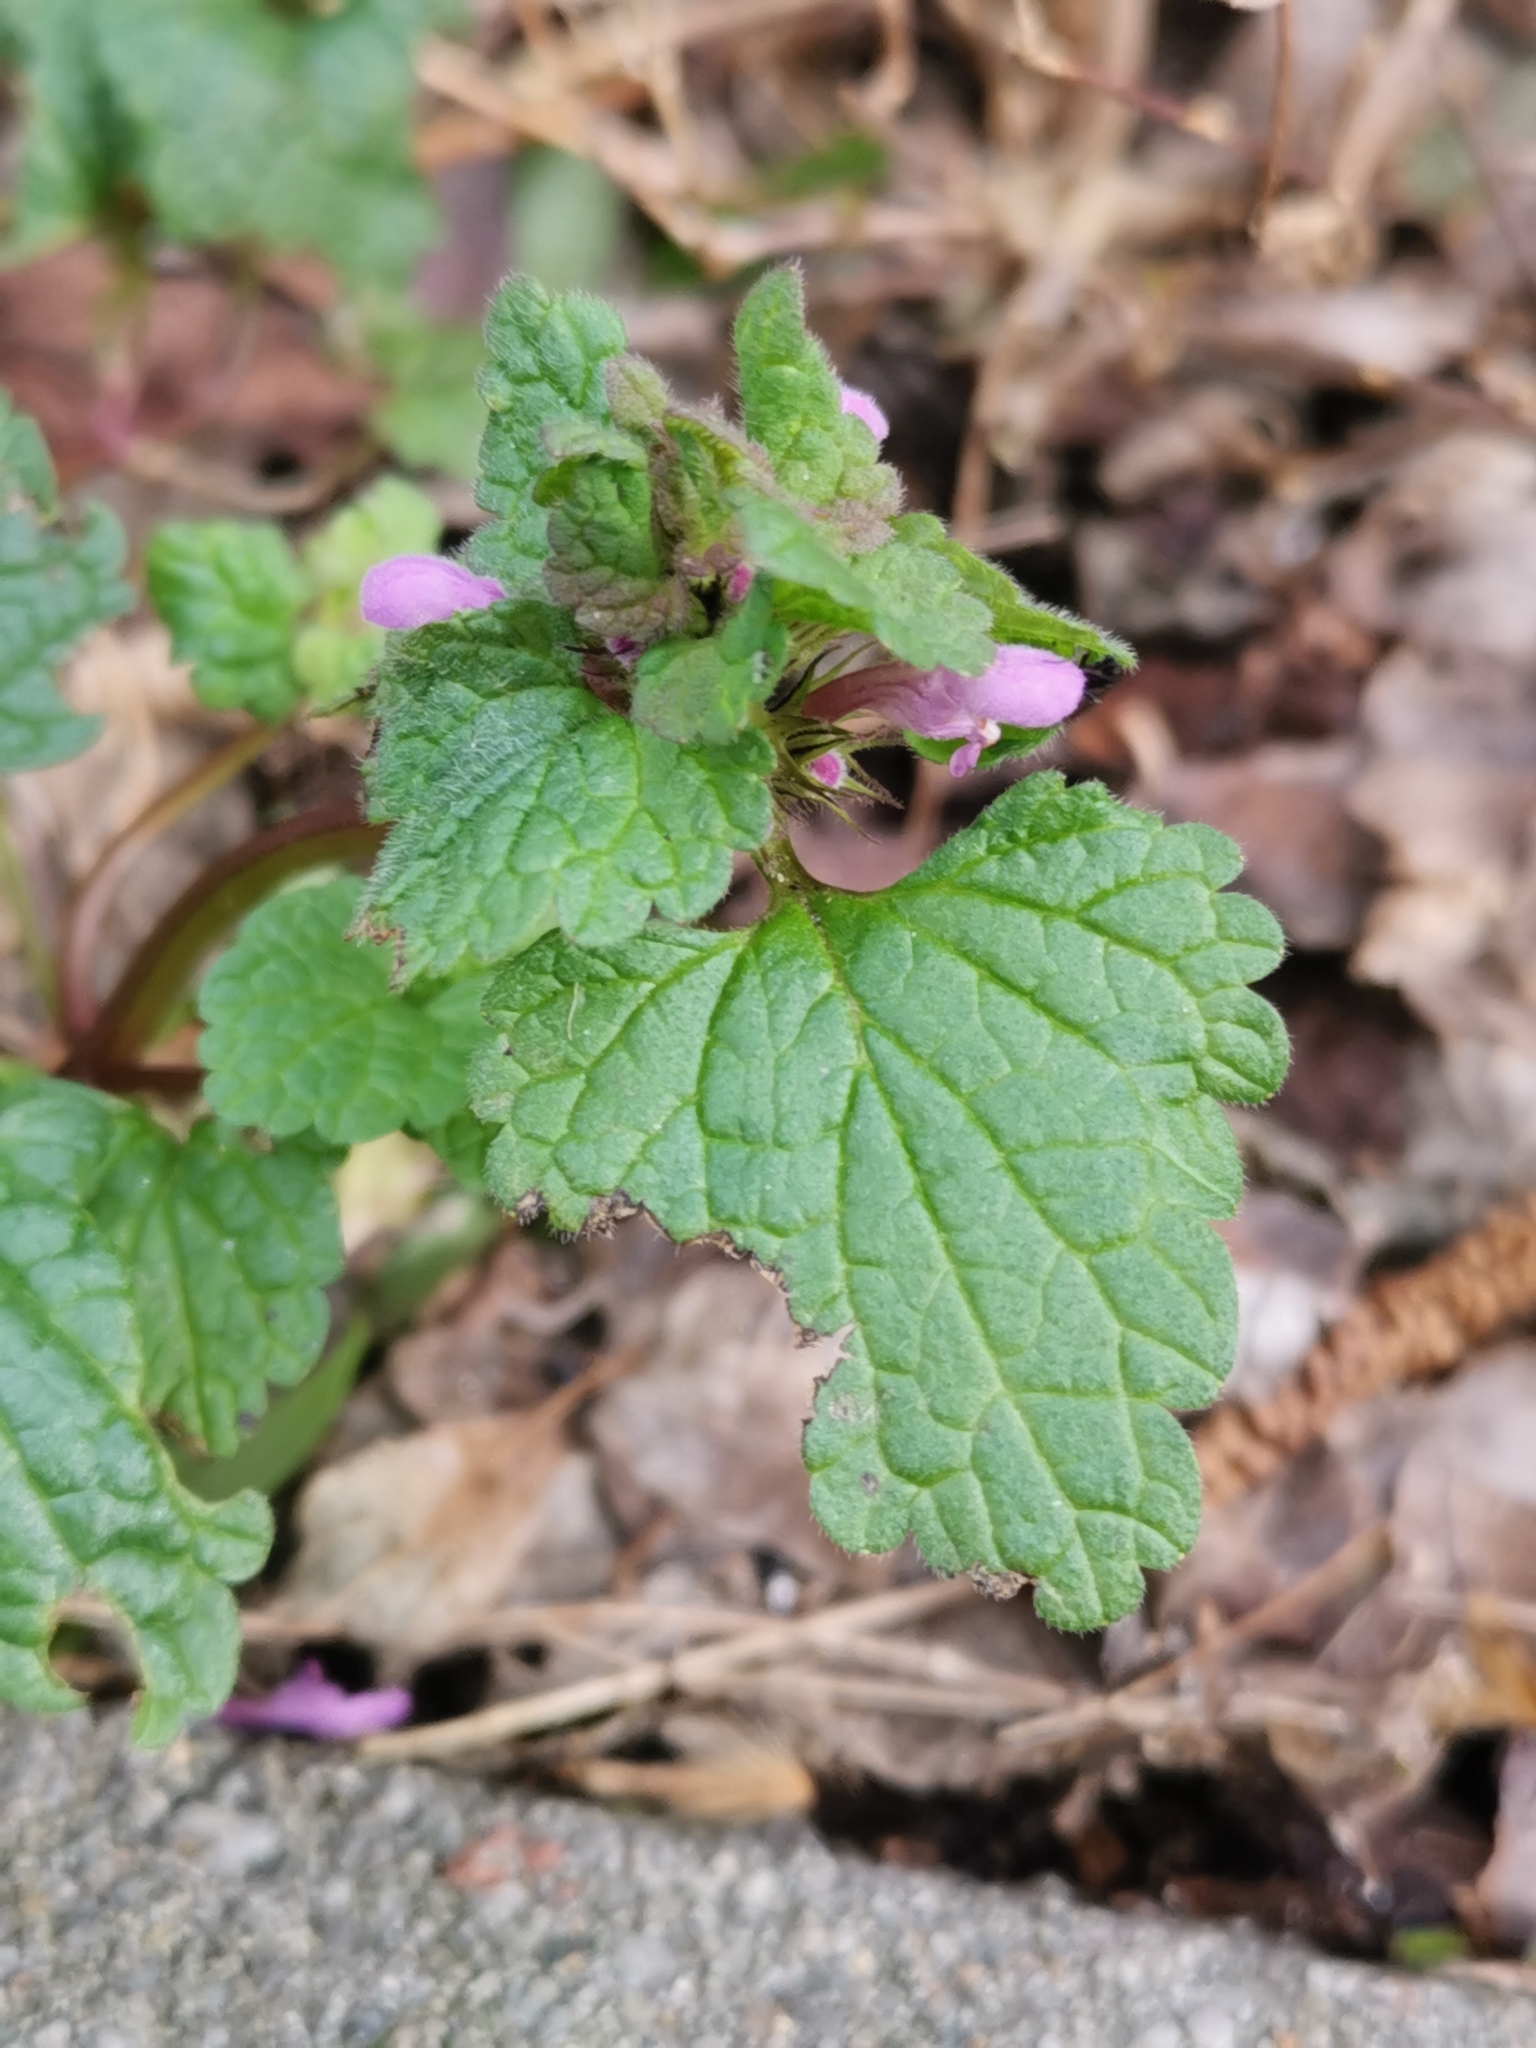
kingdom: Plantae
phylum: Tracheophyta
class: Magnoliopsida
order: Lamiales
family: Lamiaceae
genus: Lamium
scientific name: Lamium purpureum
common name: Red dead-nettle
